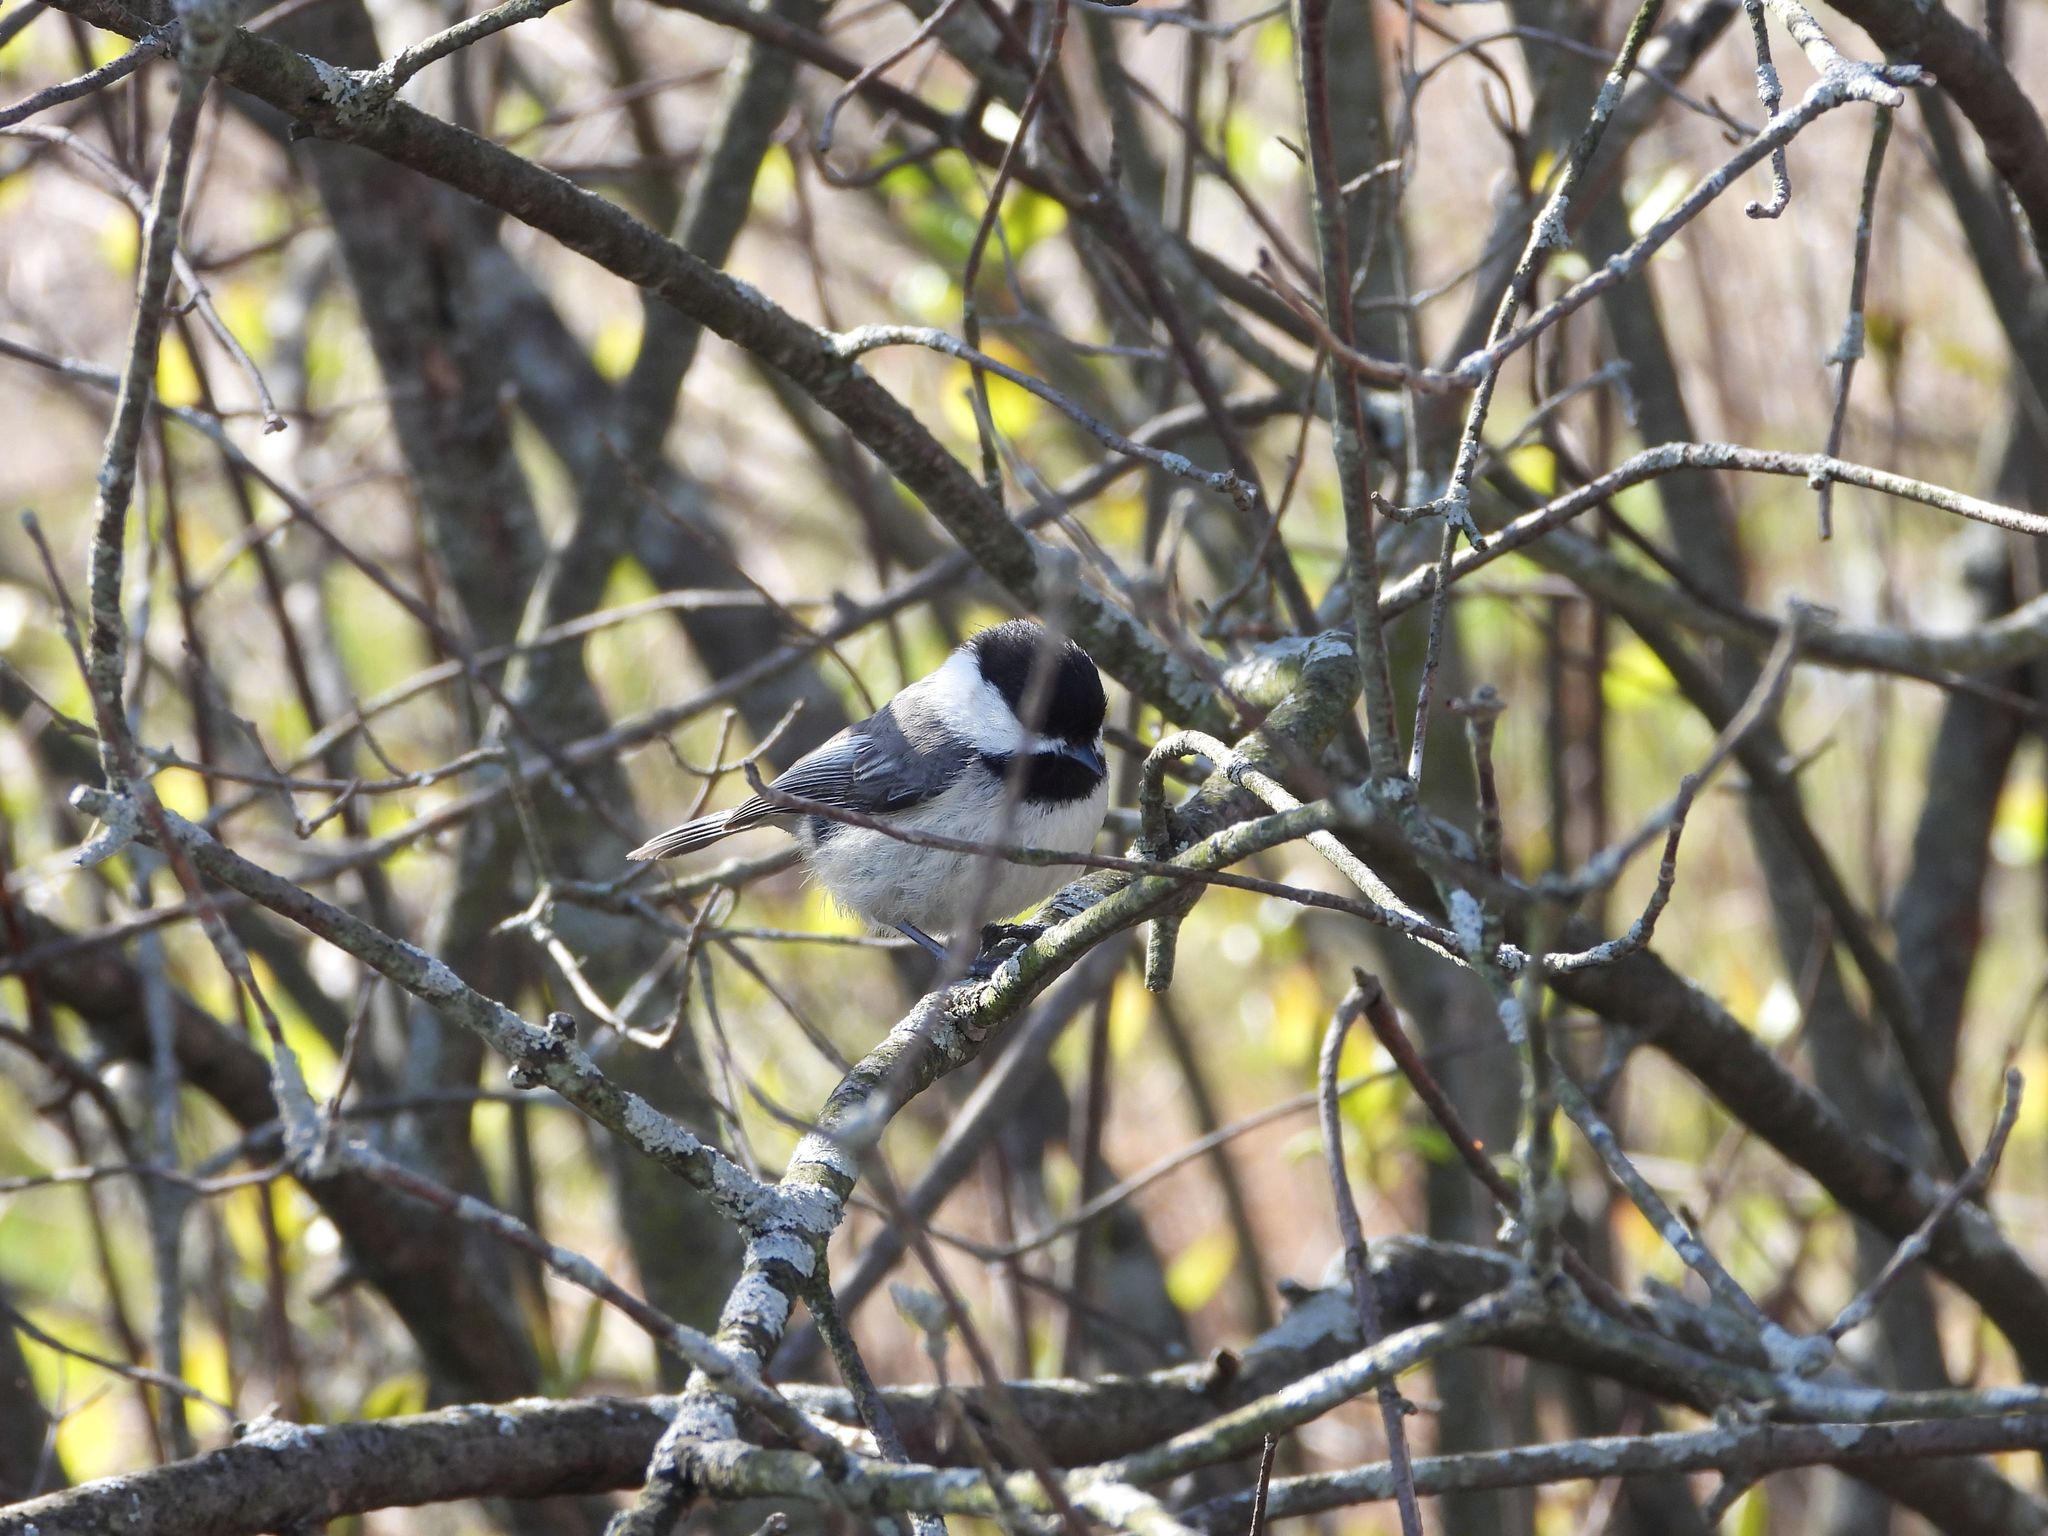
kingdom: Animalia
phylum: Chordata
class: Aves
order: Passeriformes
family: Paridae
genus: Poecile
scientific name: Poecile atricapillus
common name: Black-capped chickadee
